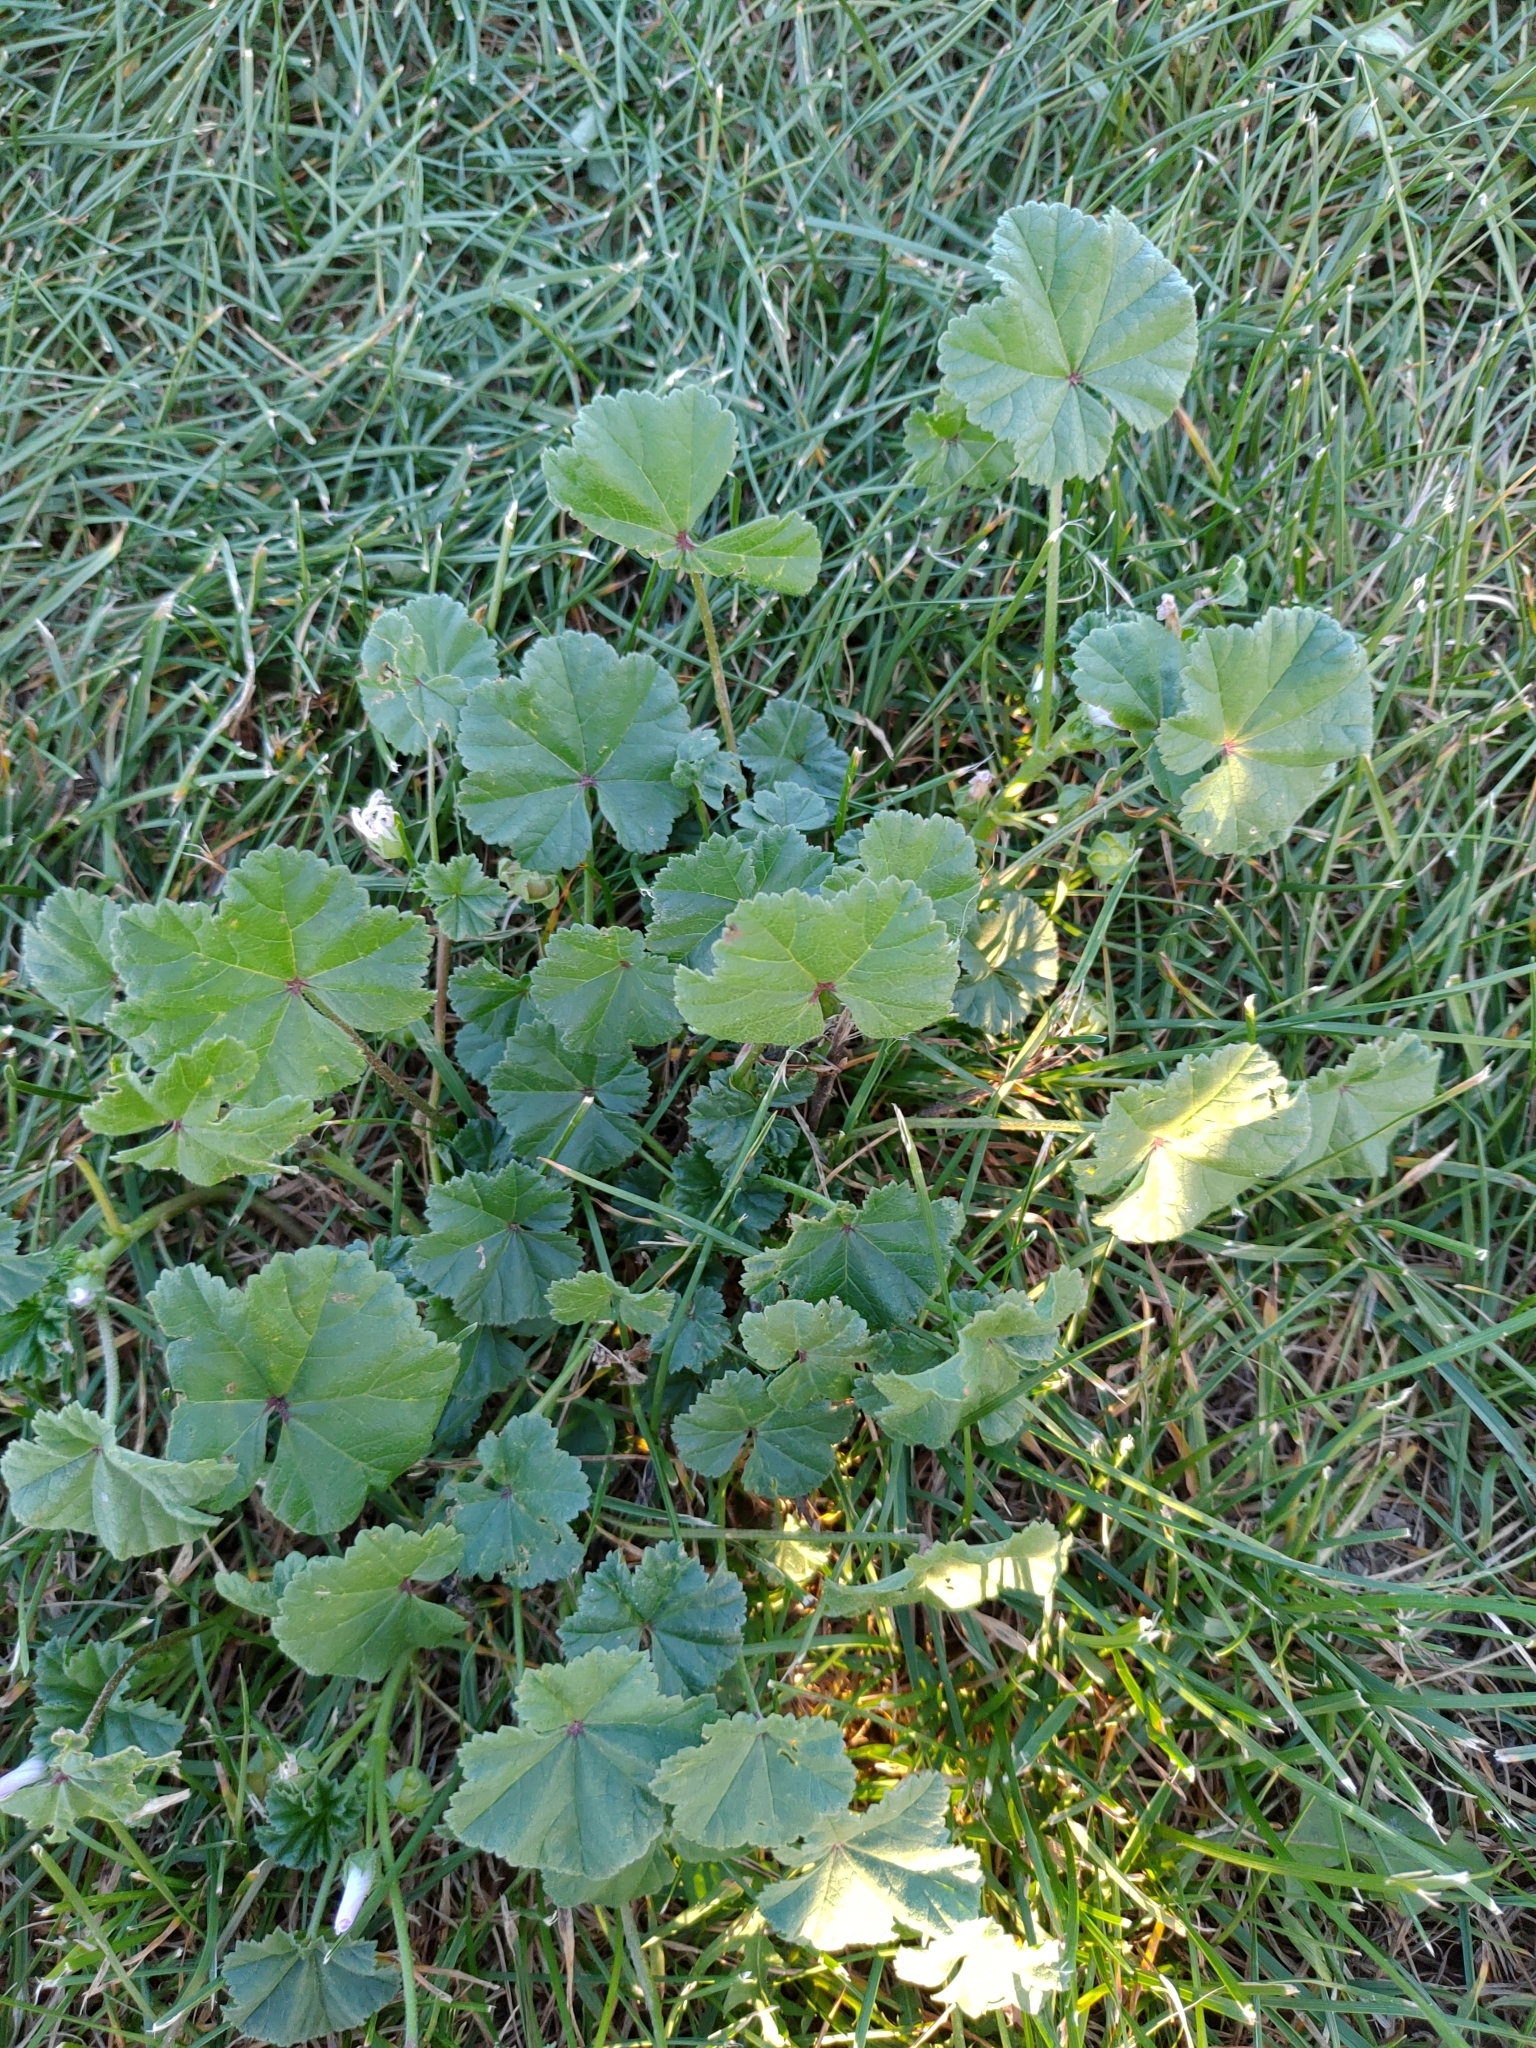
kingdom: Plantae
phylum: Tracheophyta
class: Magnoliopsida
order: Malvales
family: Malvaceae
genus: Malva
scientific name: Malva neglecta
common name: Common mallow
